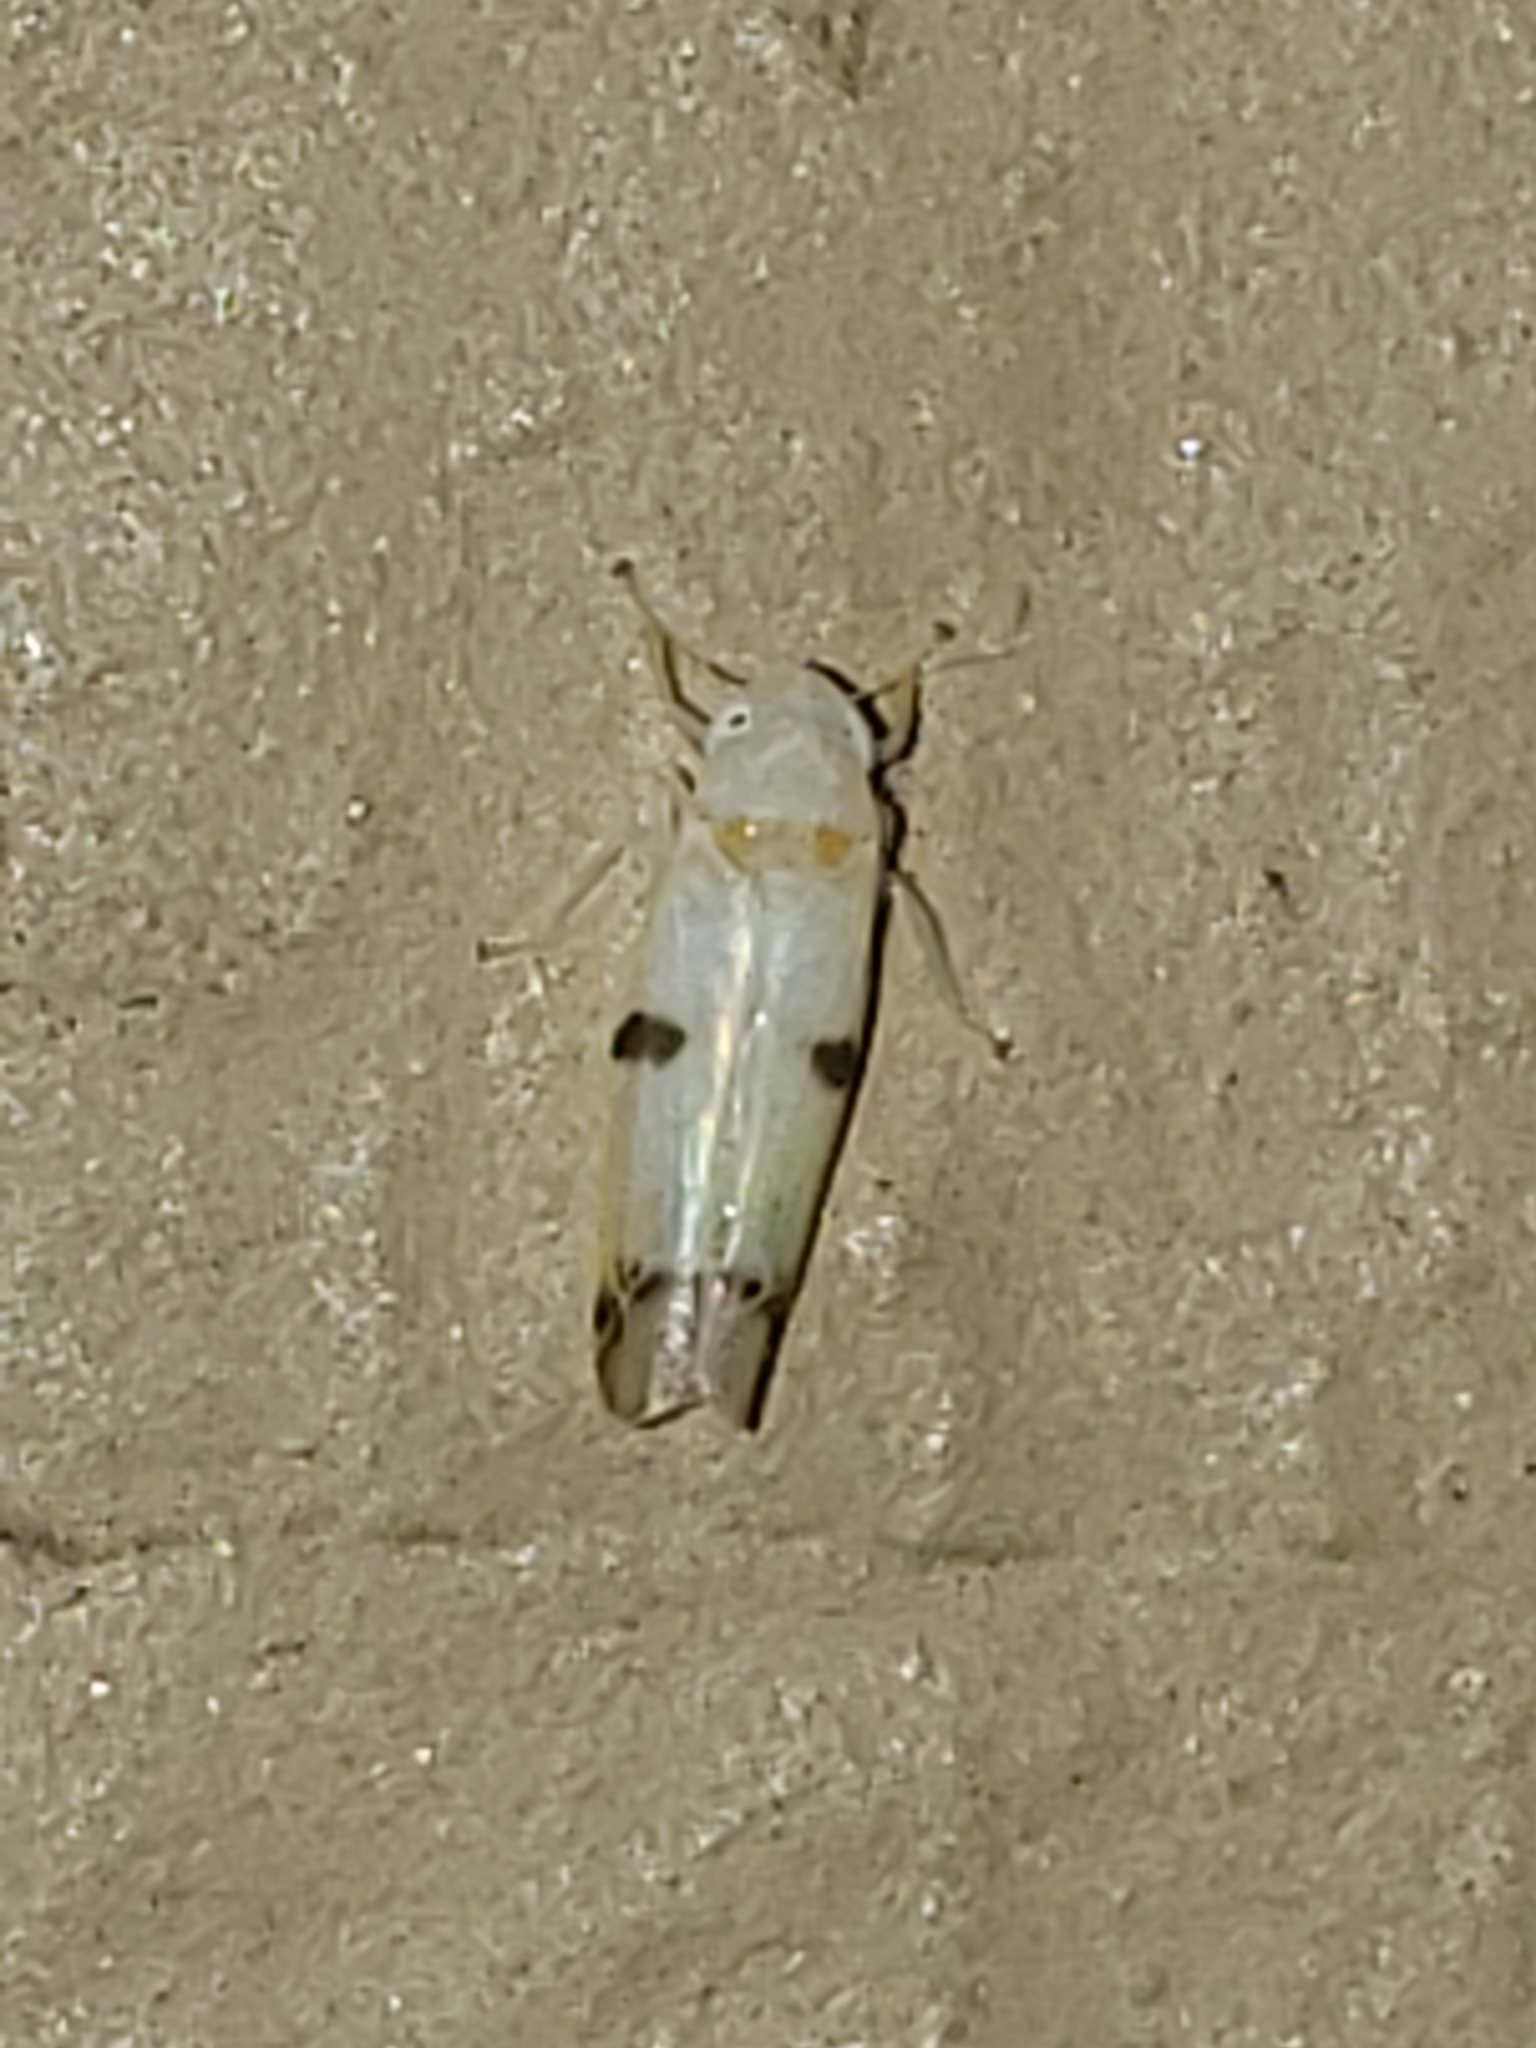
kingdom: Animalia
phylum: Arthropoda
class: Insecta
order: Hemiptera
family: Cicadellidae
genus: Empoa
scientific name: Empoa gillettei
